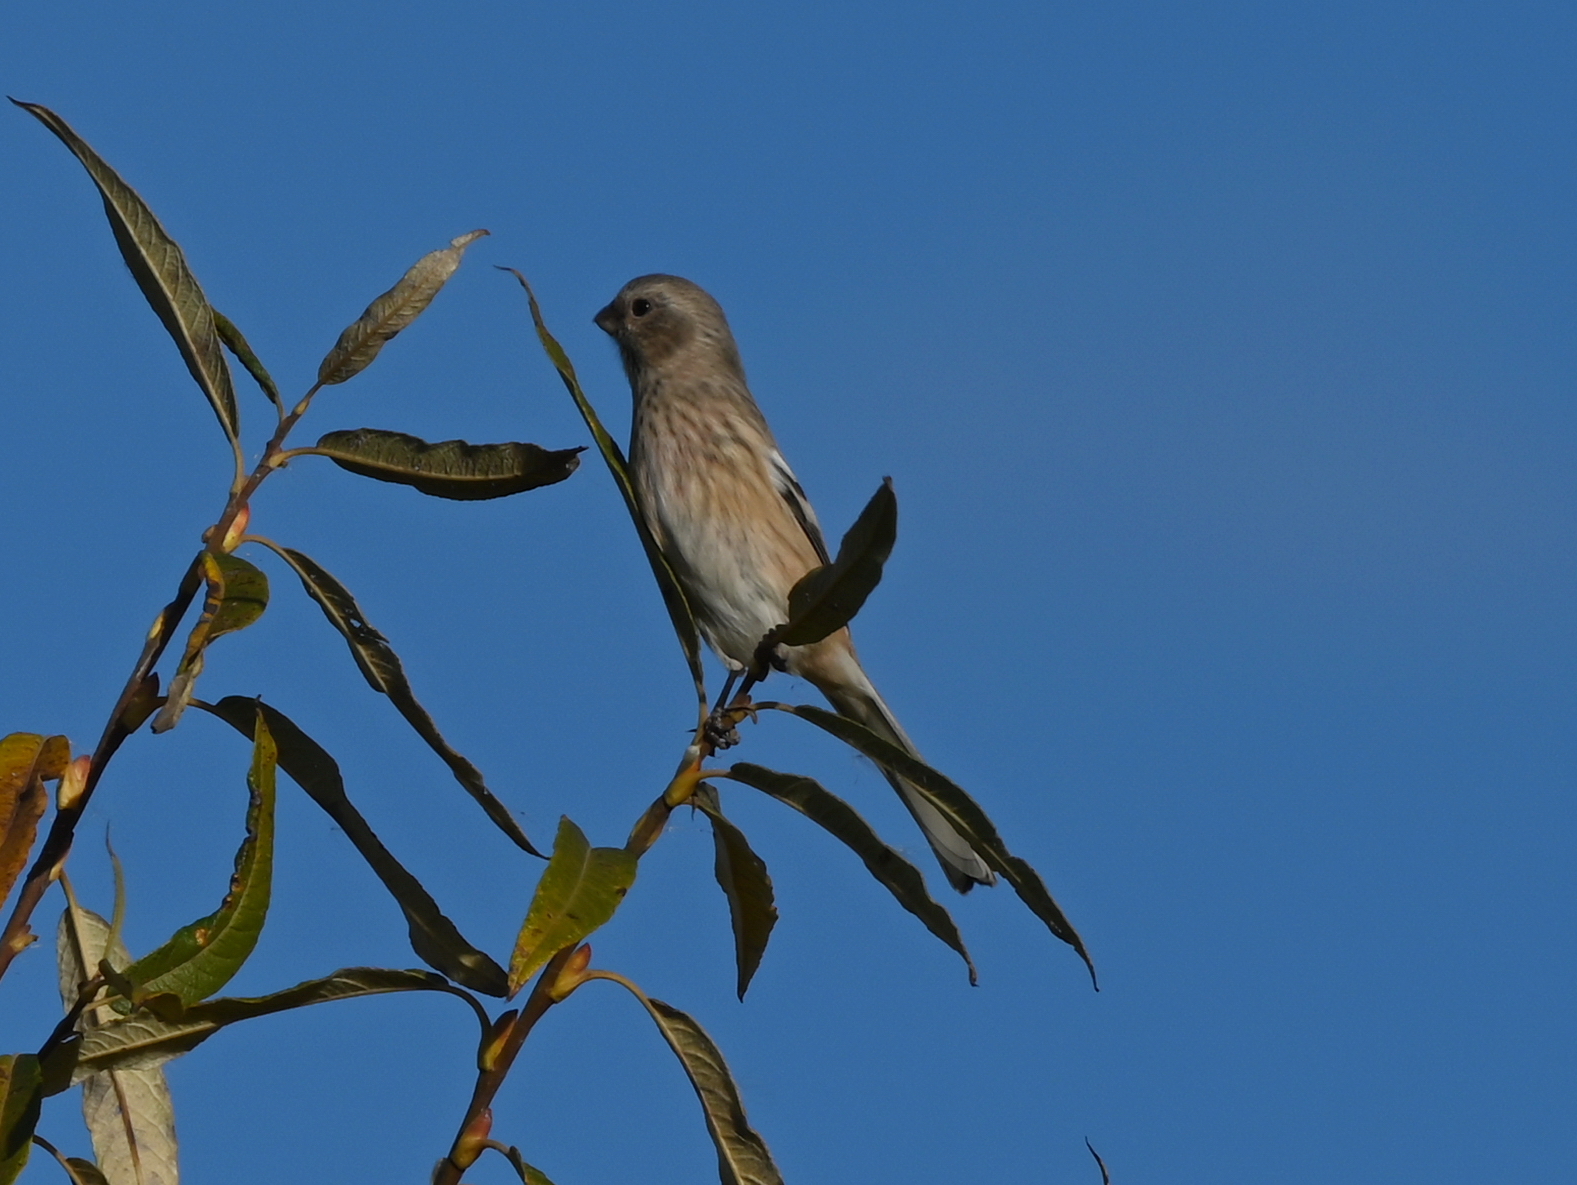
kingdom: Animalia
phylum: Chordata
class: Aves
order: Passeriformes
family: Fringillidae
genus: Carpodacus
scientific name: Carpodacus sibiricus
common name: Long-tailed rosefinch
